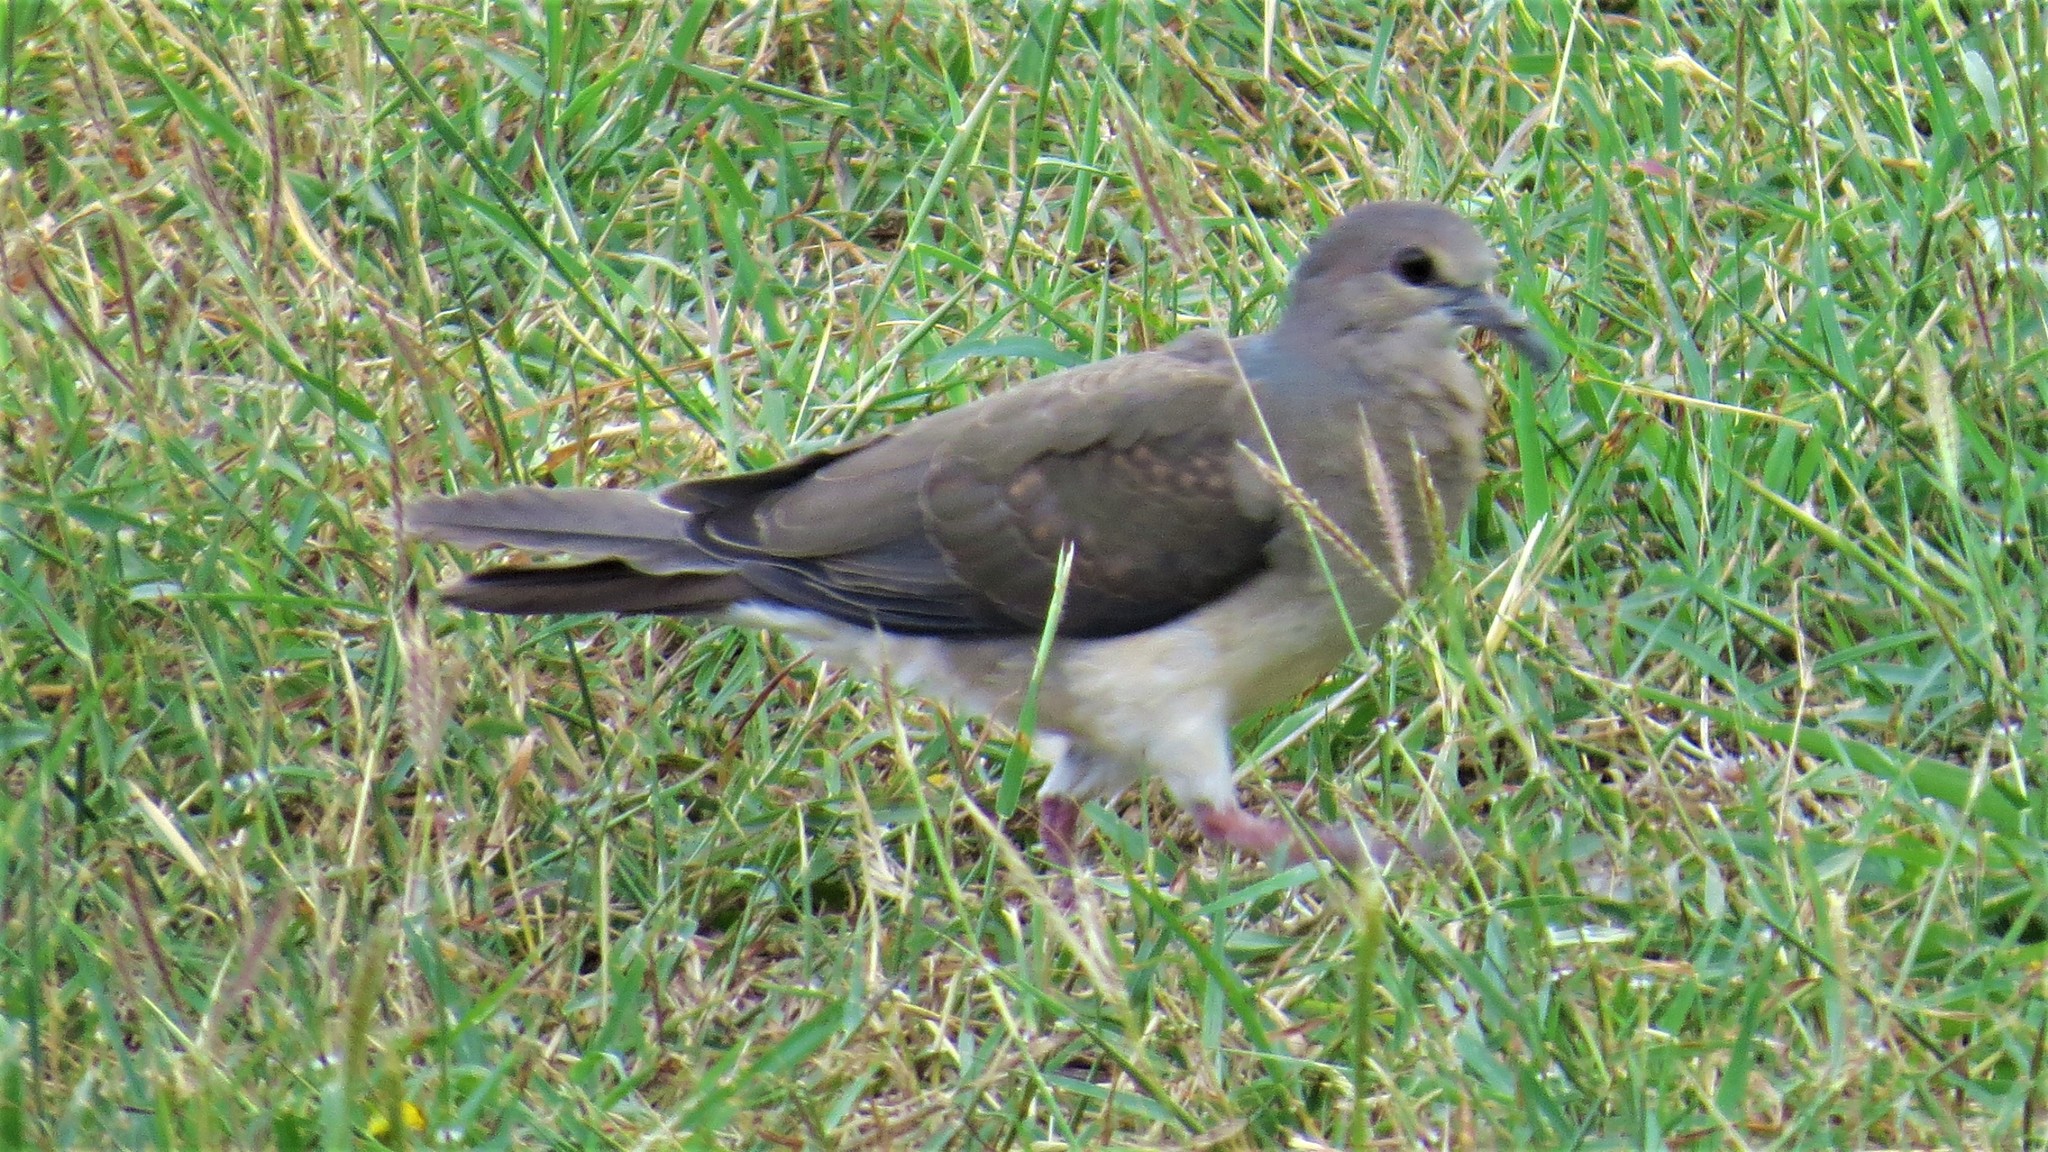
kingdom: Animalia
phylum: Chordata
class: Aves
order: Columbiformes
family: Columbidae
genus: Leptotila
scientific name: Leptotila verreauxi
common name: White-tipped dove
